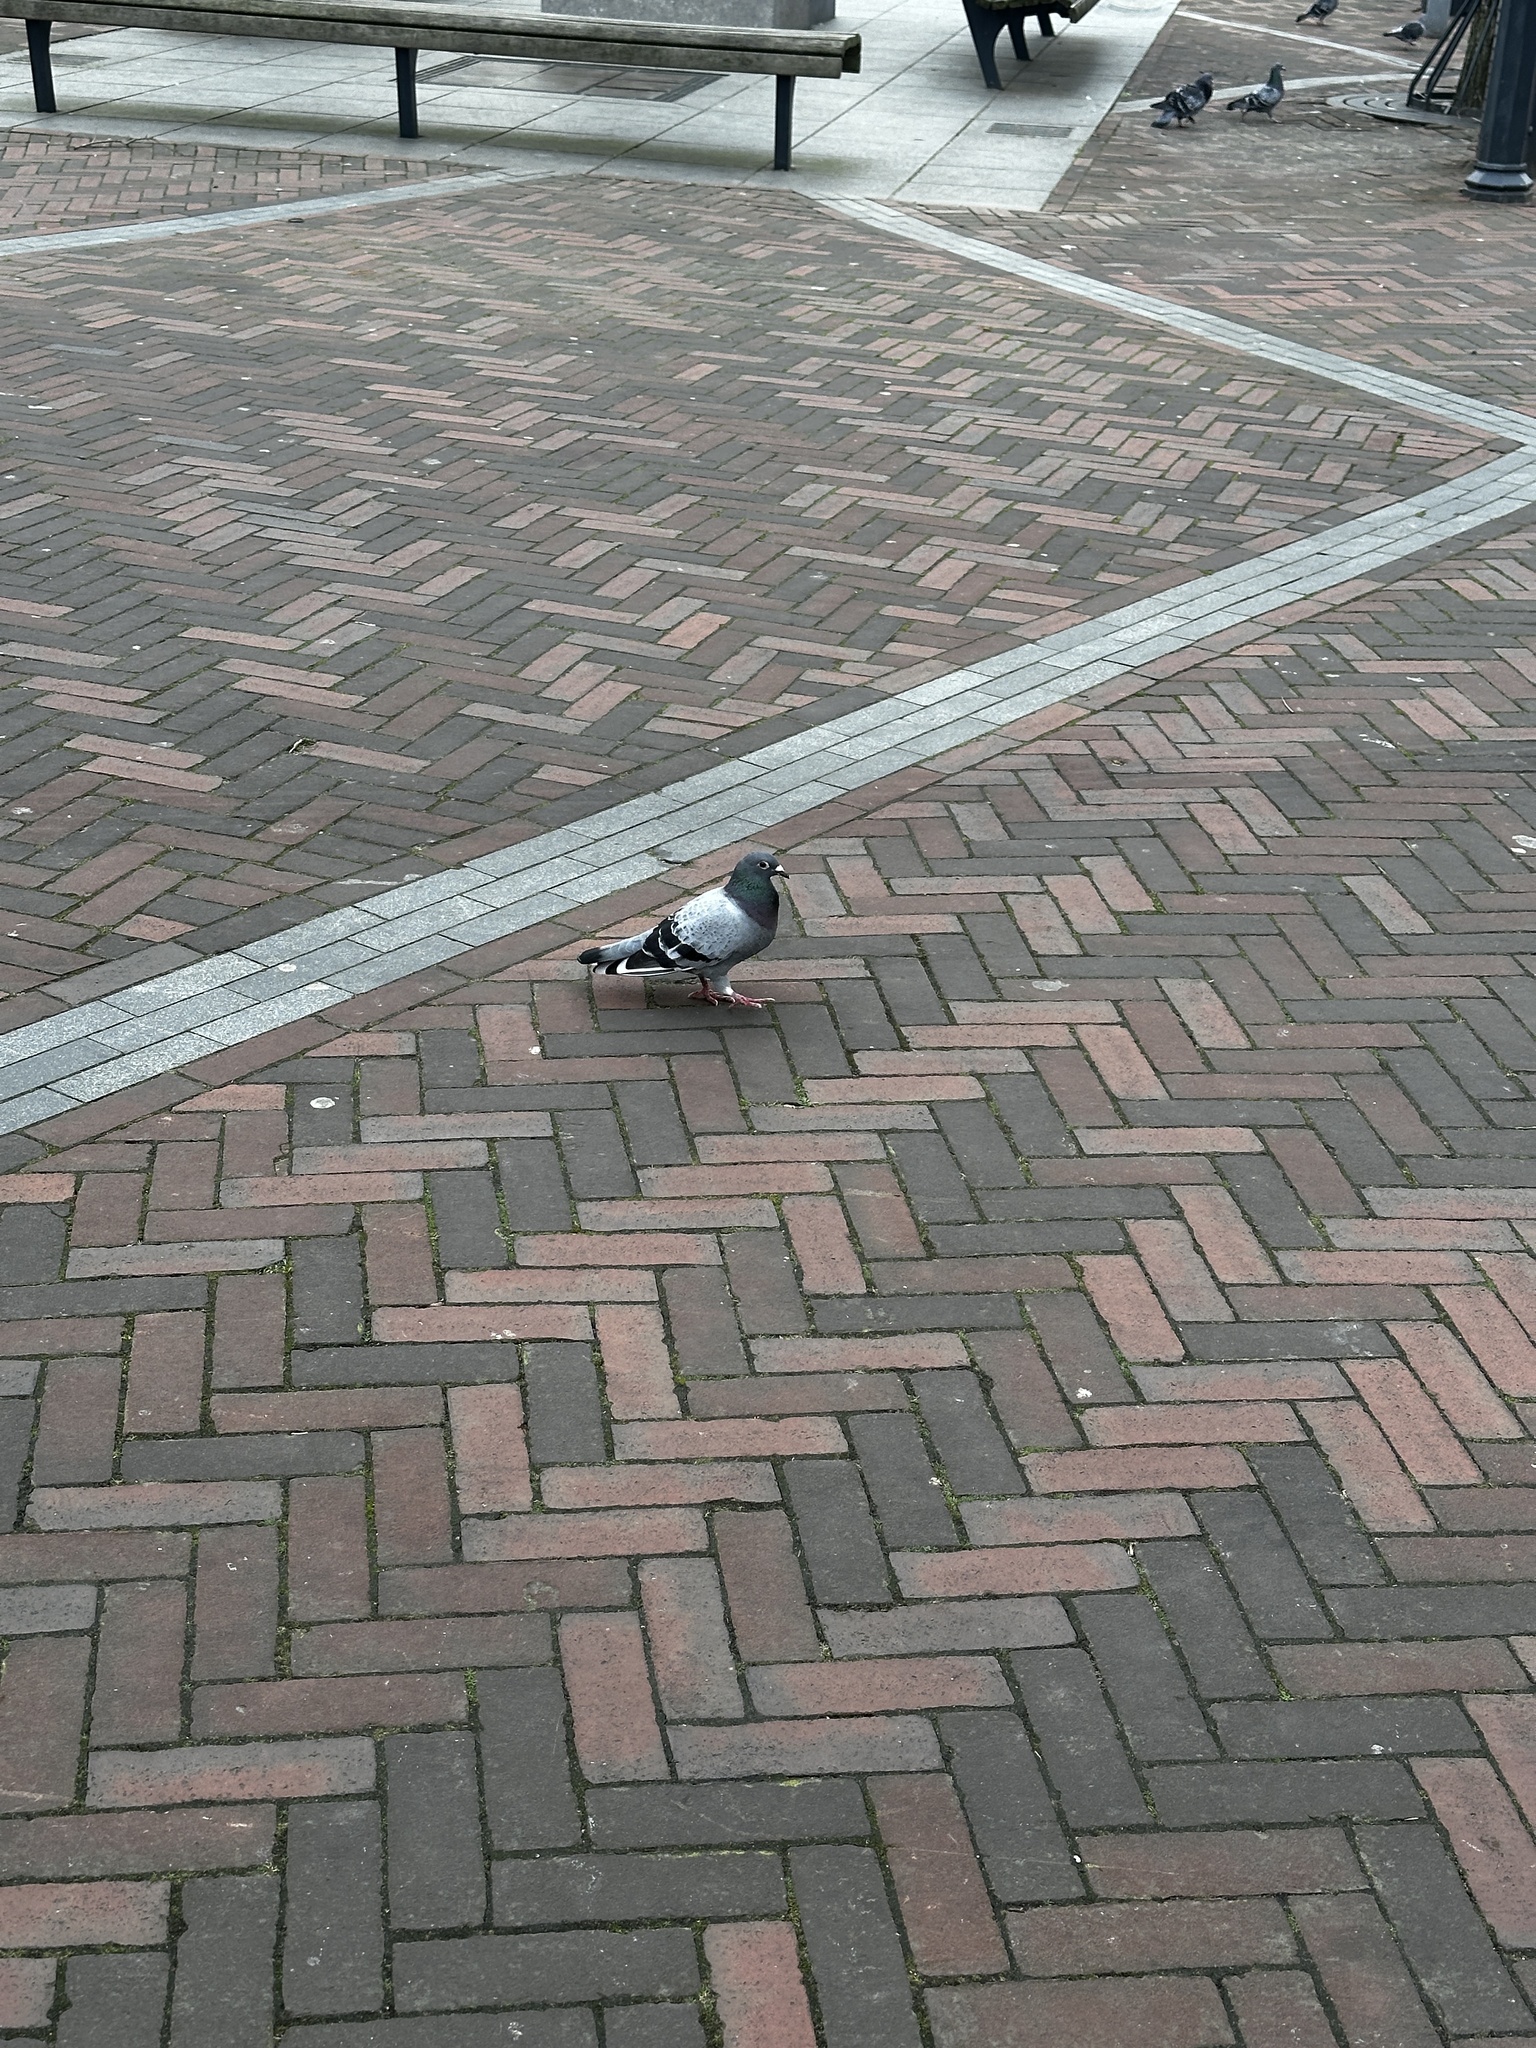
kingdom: Animalia
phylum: Chordata
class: Aves
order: Columbiformes
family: Columbidae
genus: Columba
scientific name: Columba livia
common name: Rock pigeon
